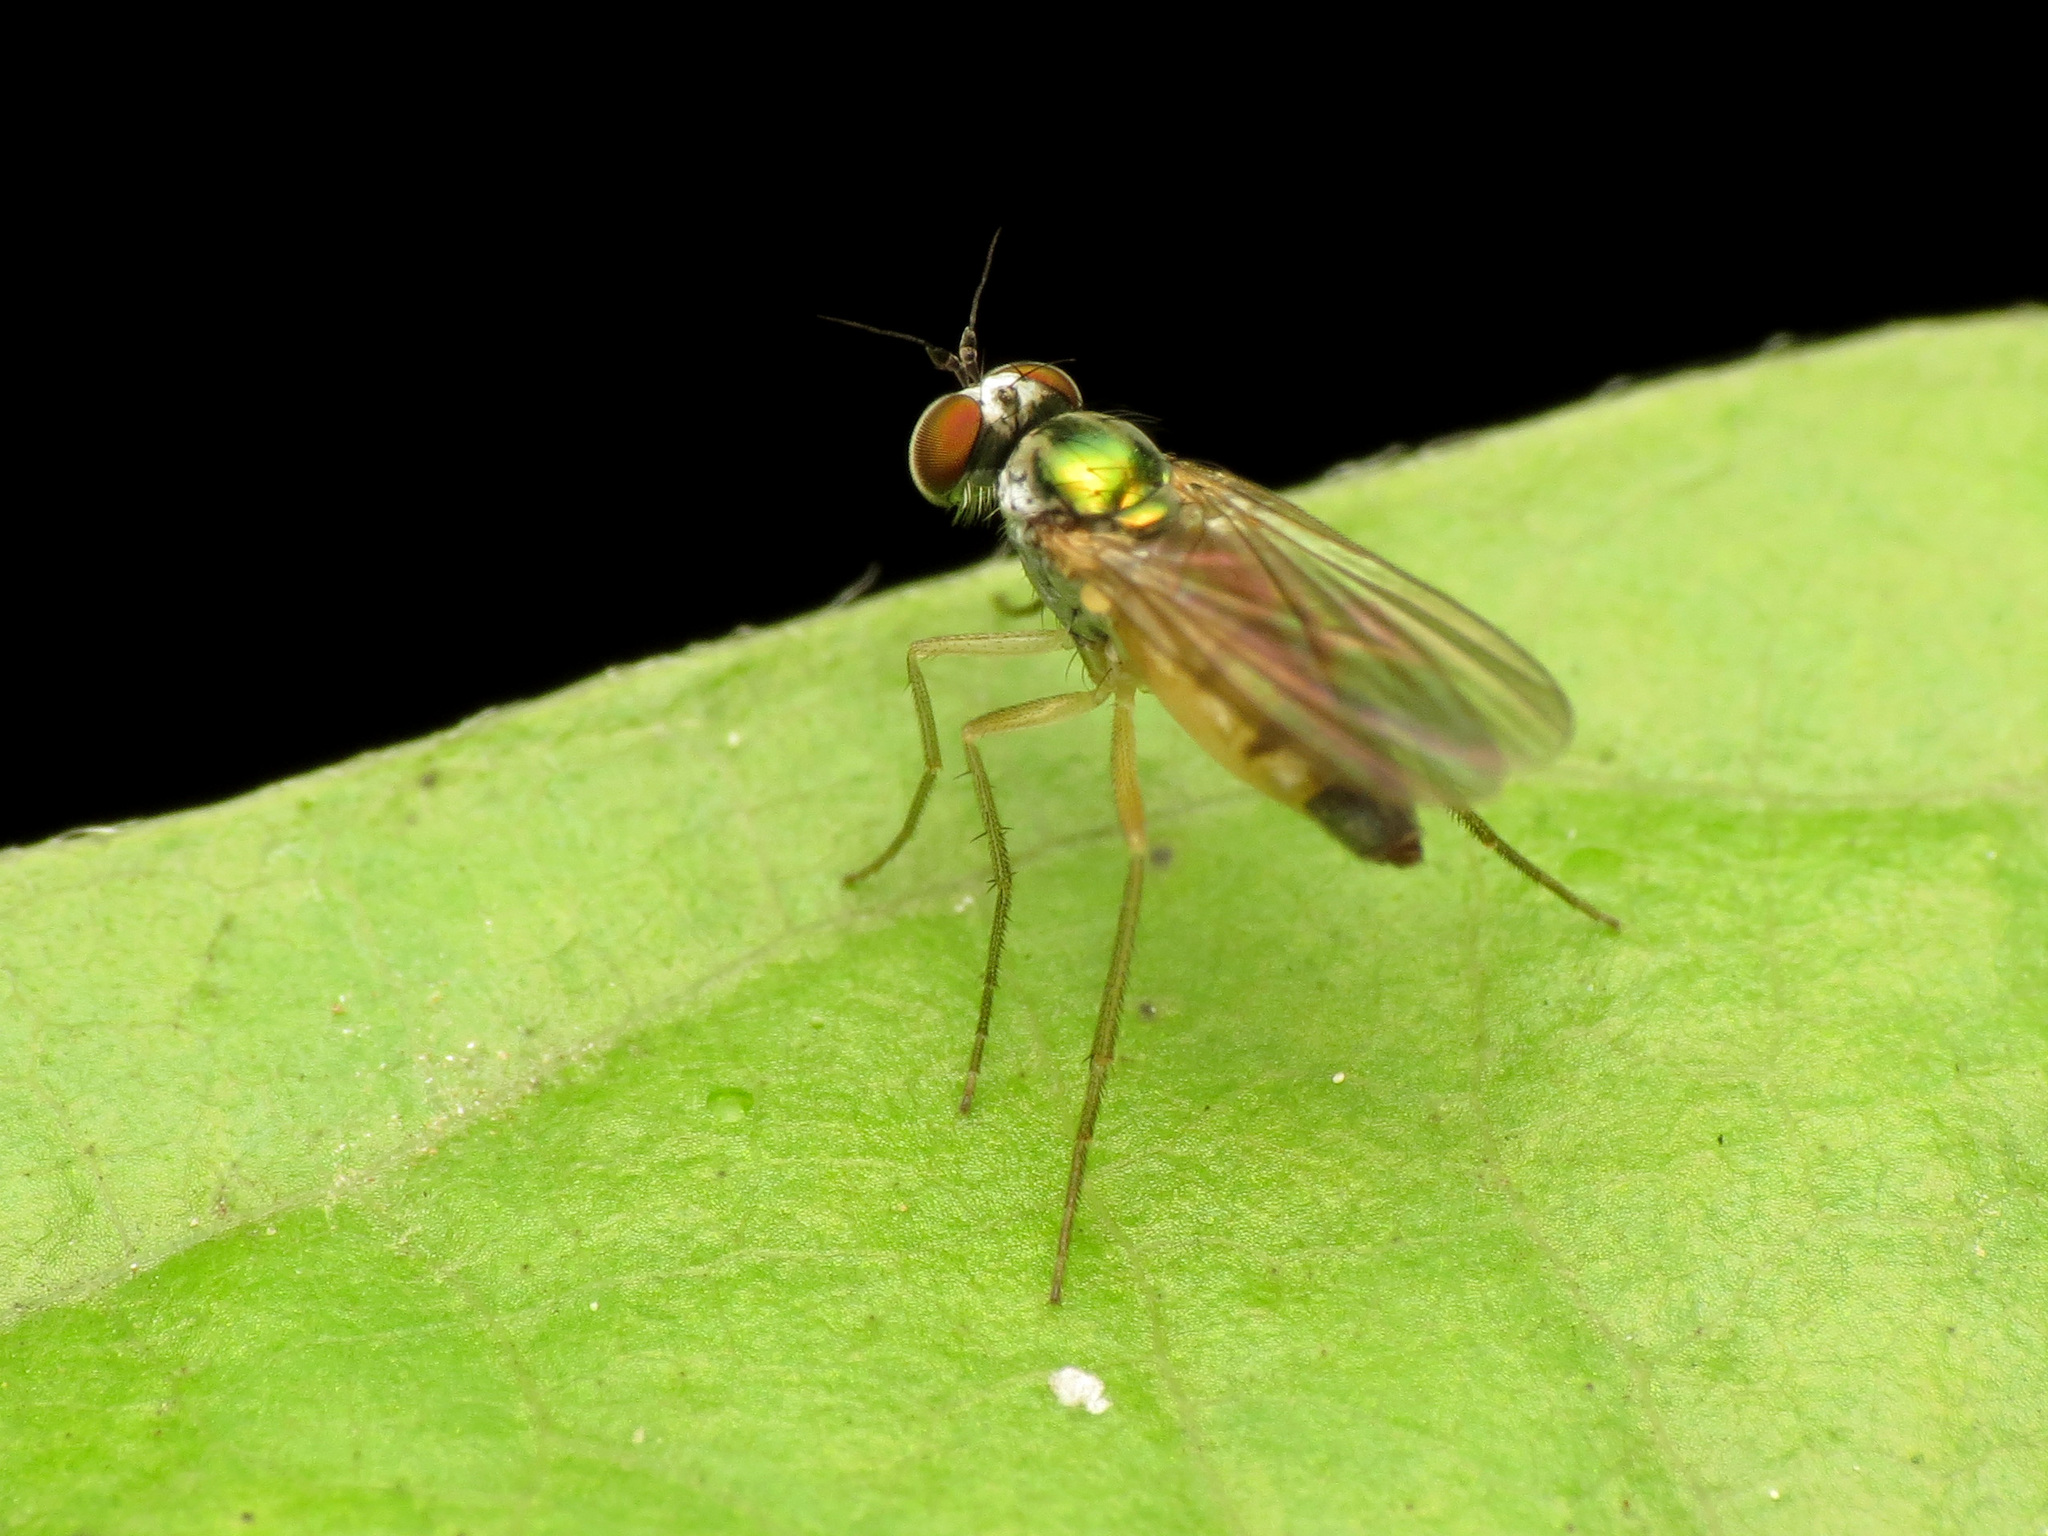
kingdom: Animalia
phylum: Arthropoda
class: Insecta
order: Diptera
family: Dolichopodidae
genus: Argyra
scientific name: Argyra flavipes
